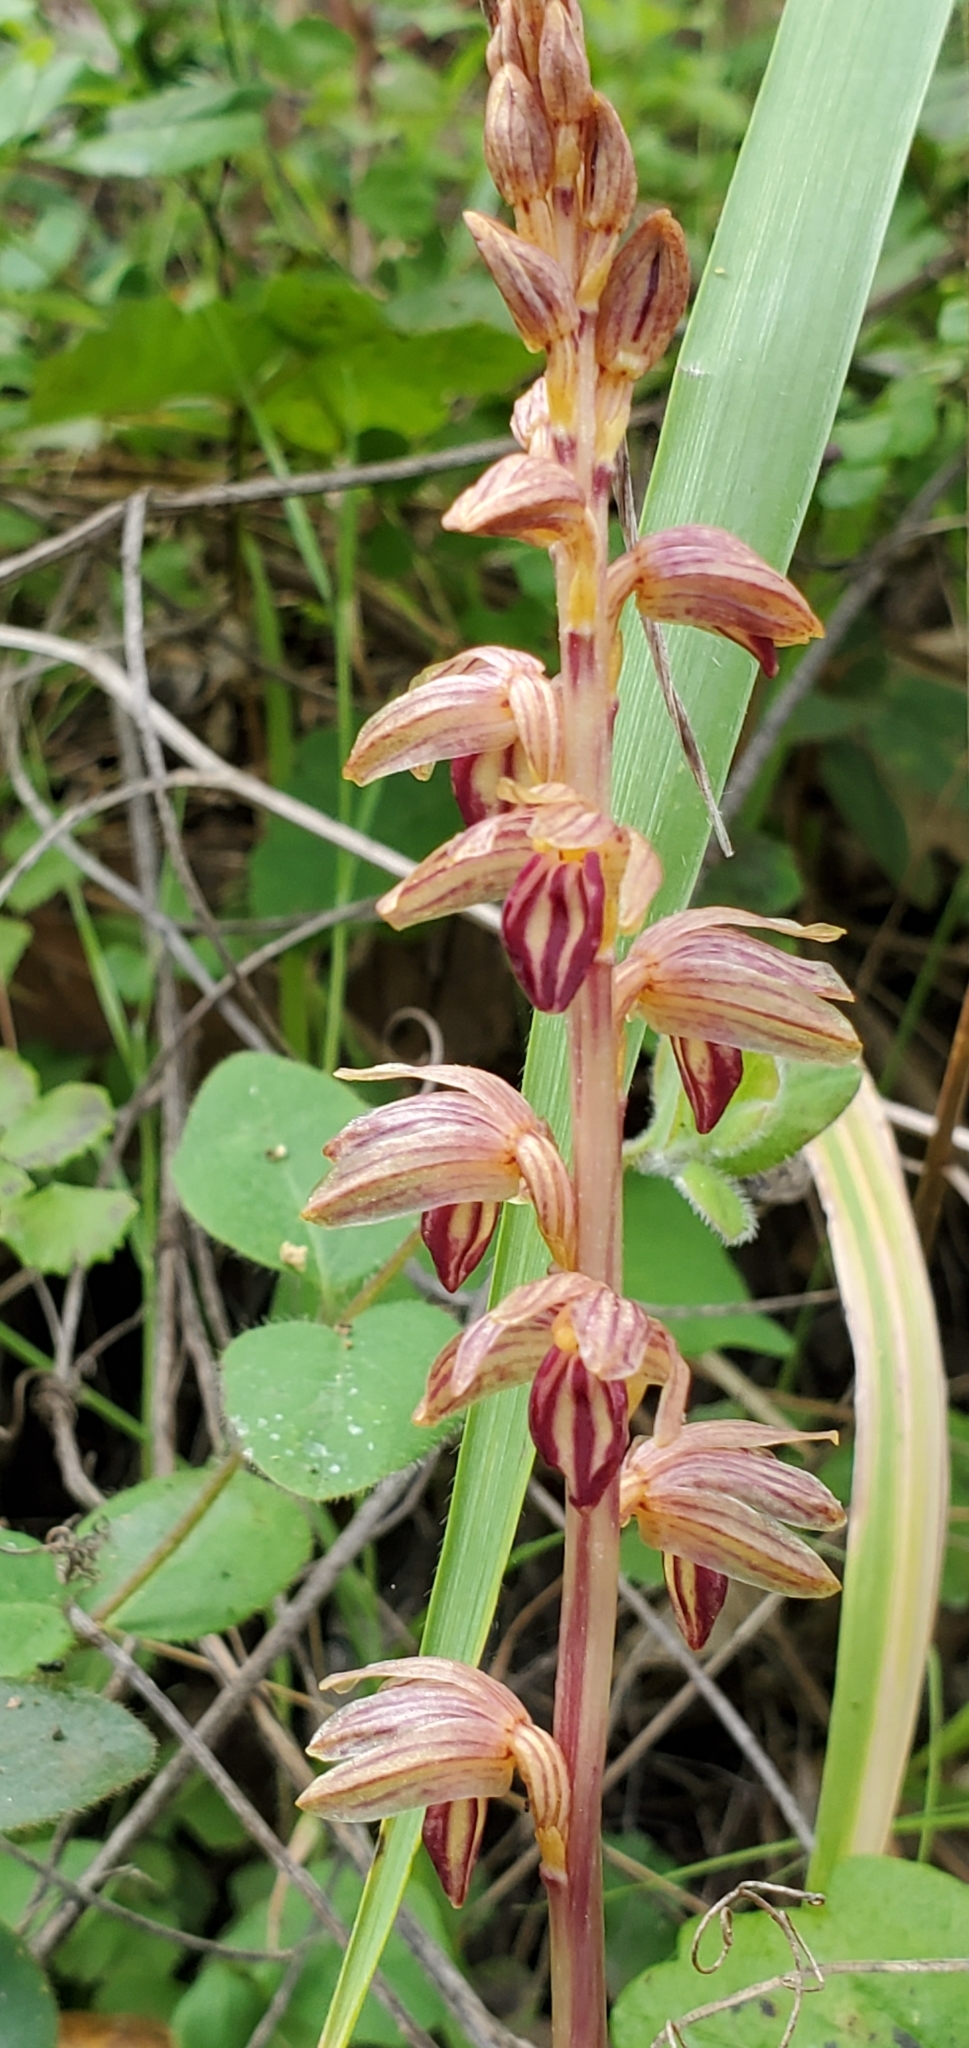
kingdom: Plantae
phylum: Tracheophyta
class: Liliopsida
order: Asparagales
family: Orchidaceae
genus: Corallorhiza
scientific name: Corallorhiza striata
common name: Hooded coralroot
